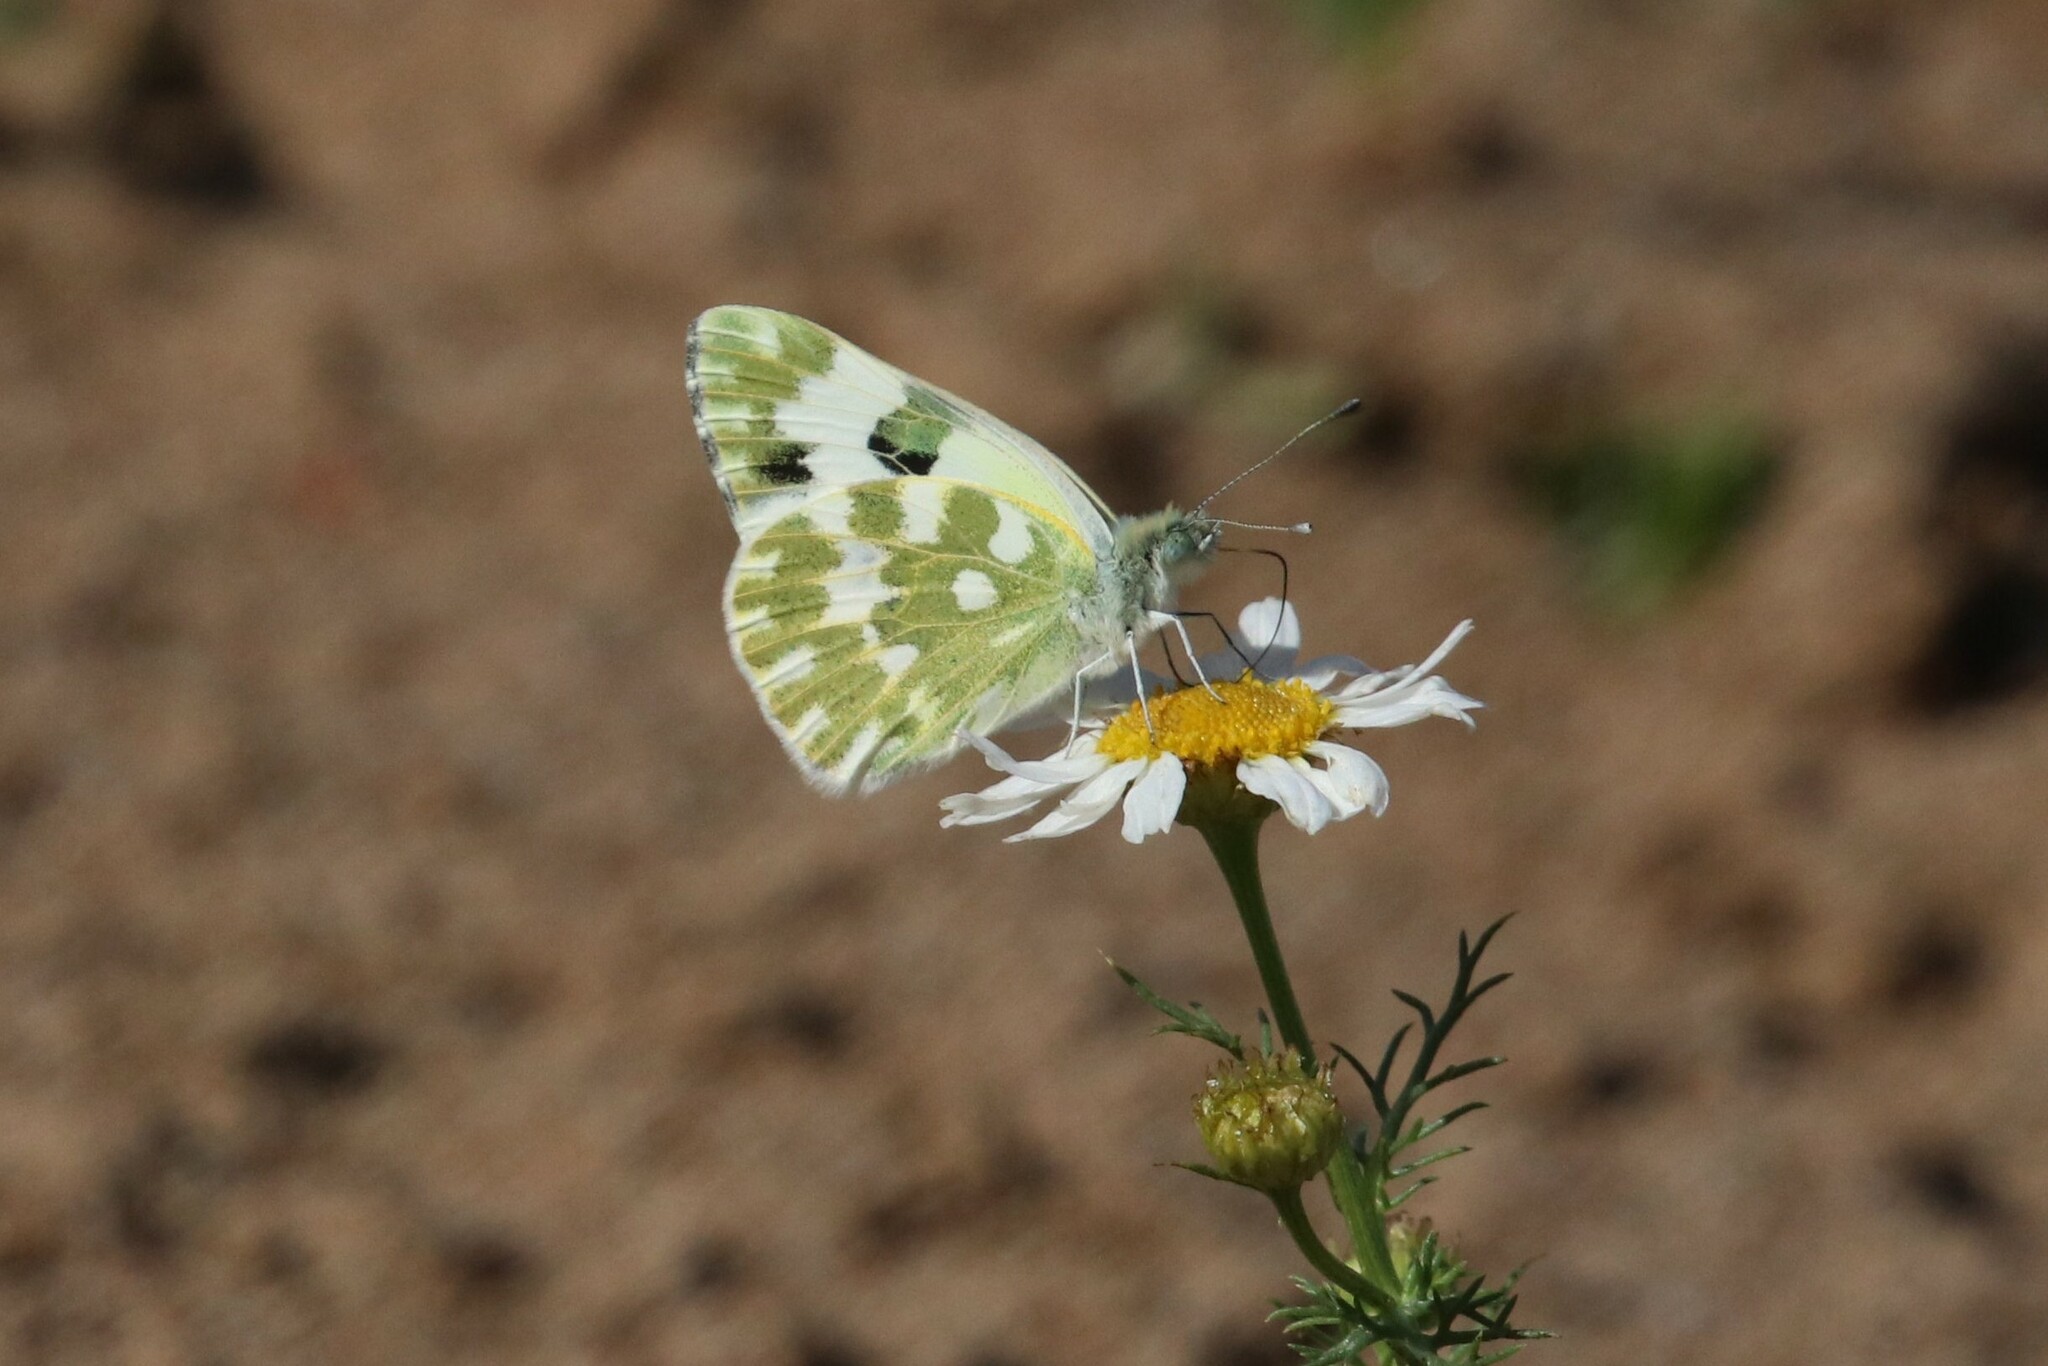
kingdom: Animalia
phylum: Arthropoda
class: Insecta
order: Lepidoptera
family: Pieridae
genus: Pontia
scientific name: Pontia edusa
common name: Eastern bath white
